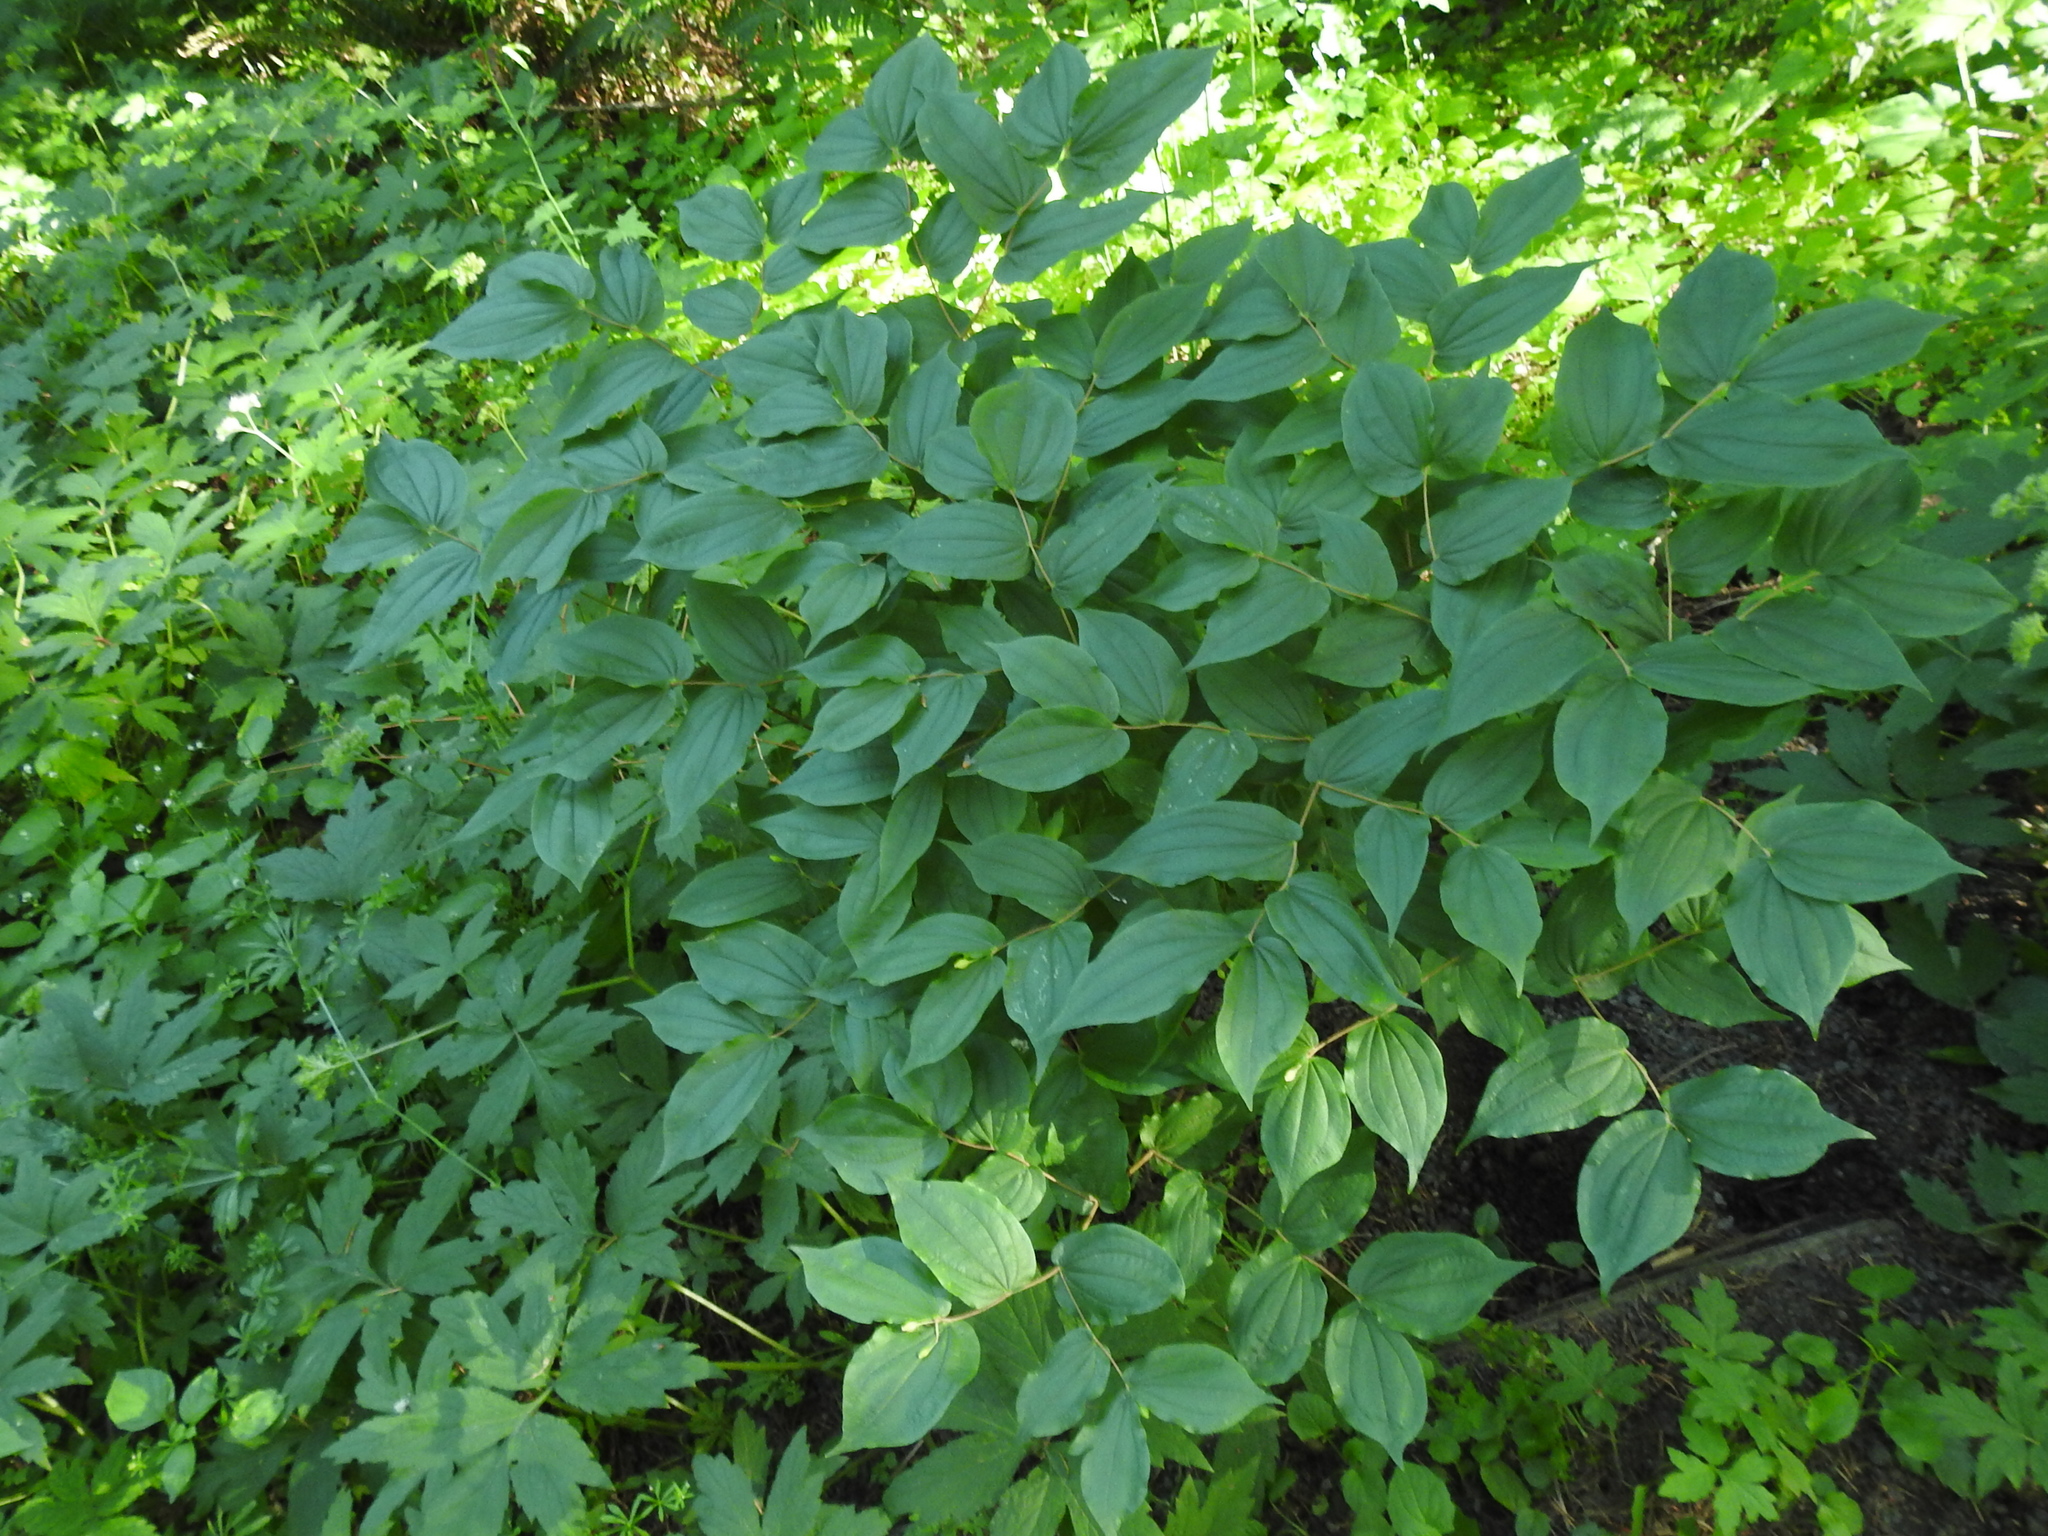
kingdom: Plantae
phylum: Tracheophyta
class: Liliopsida
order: Liliales
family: Liliaceae
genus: Prosartes
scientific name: Prosartes hookeri
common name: Fairy-bells
